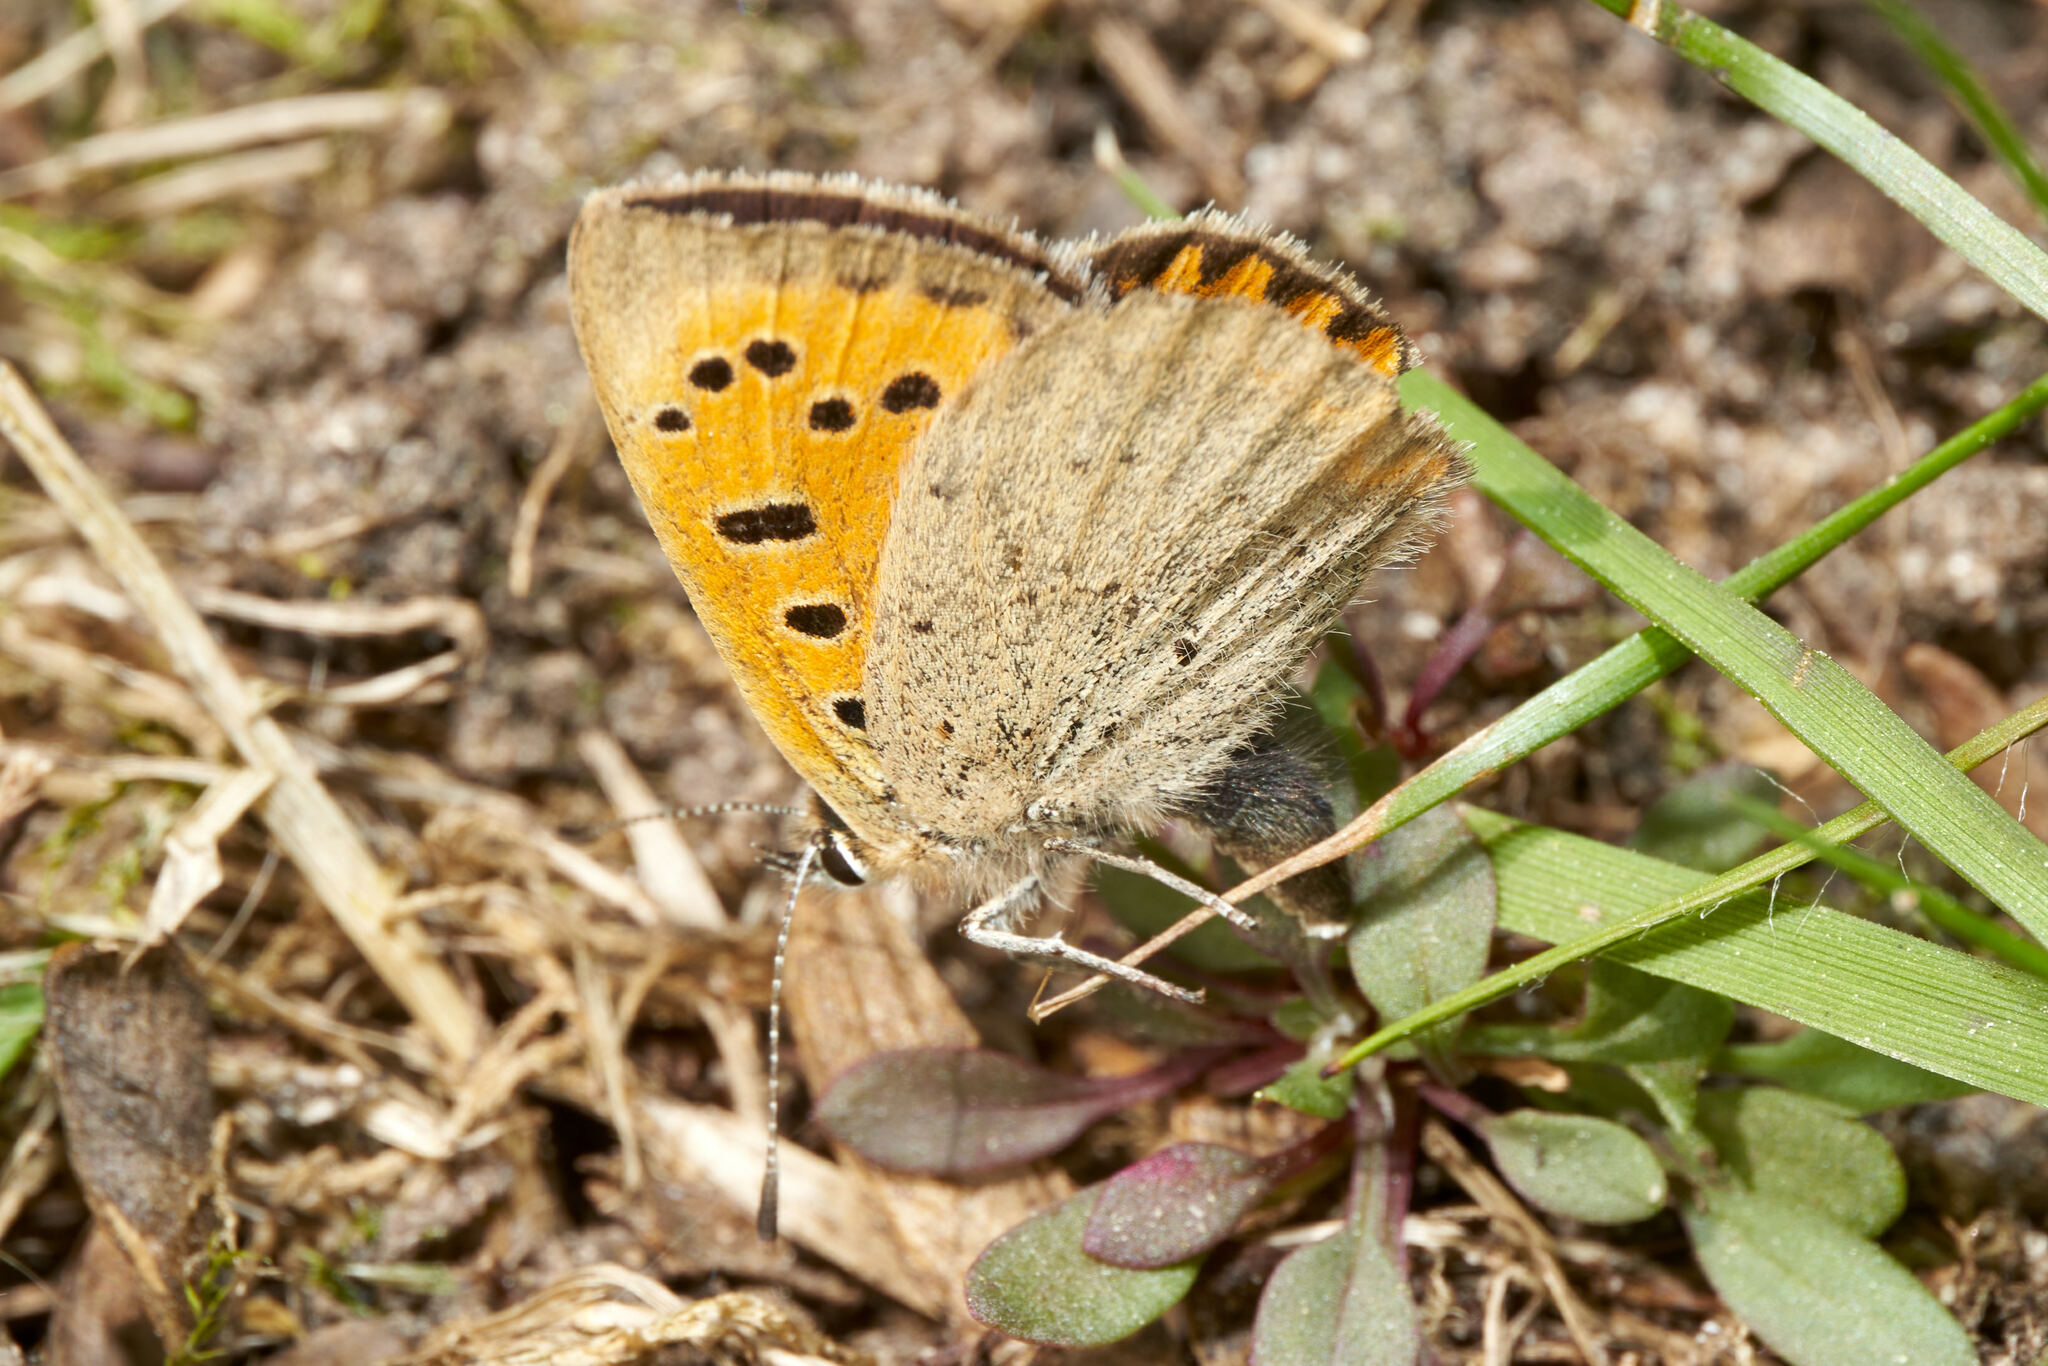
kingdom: Animalia
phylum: Arthropoda
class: Insecta
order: Lepidoptera
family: Lycaenidae
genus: Lycaena
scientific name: Lycaena phlaeas
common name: Small copper
